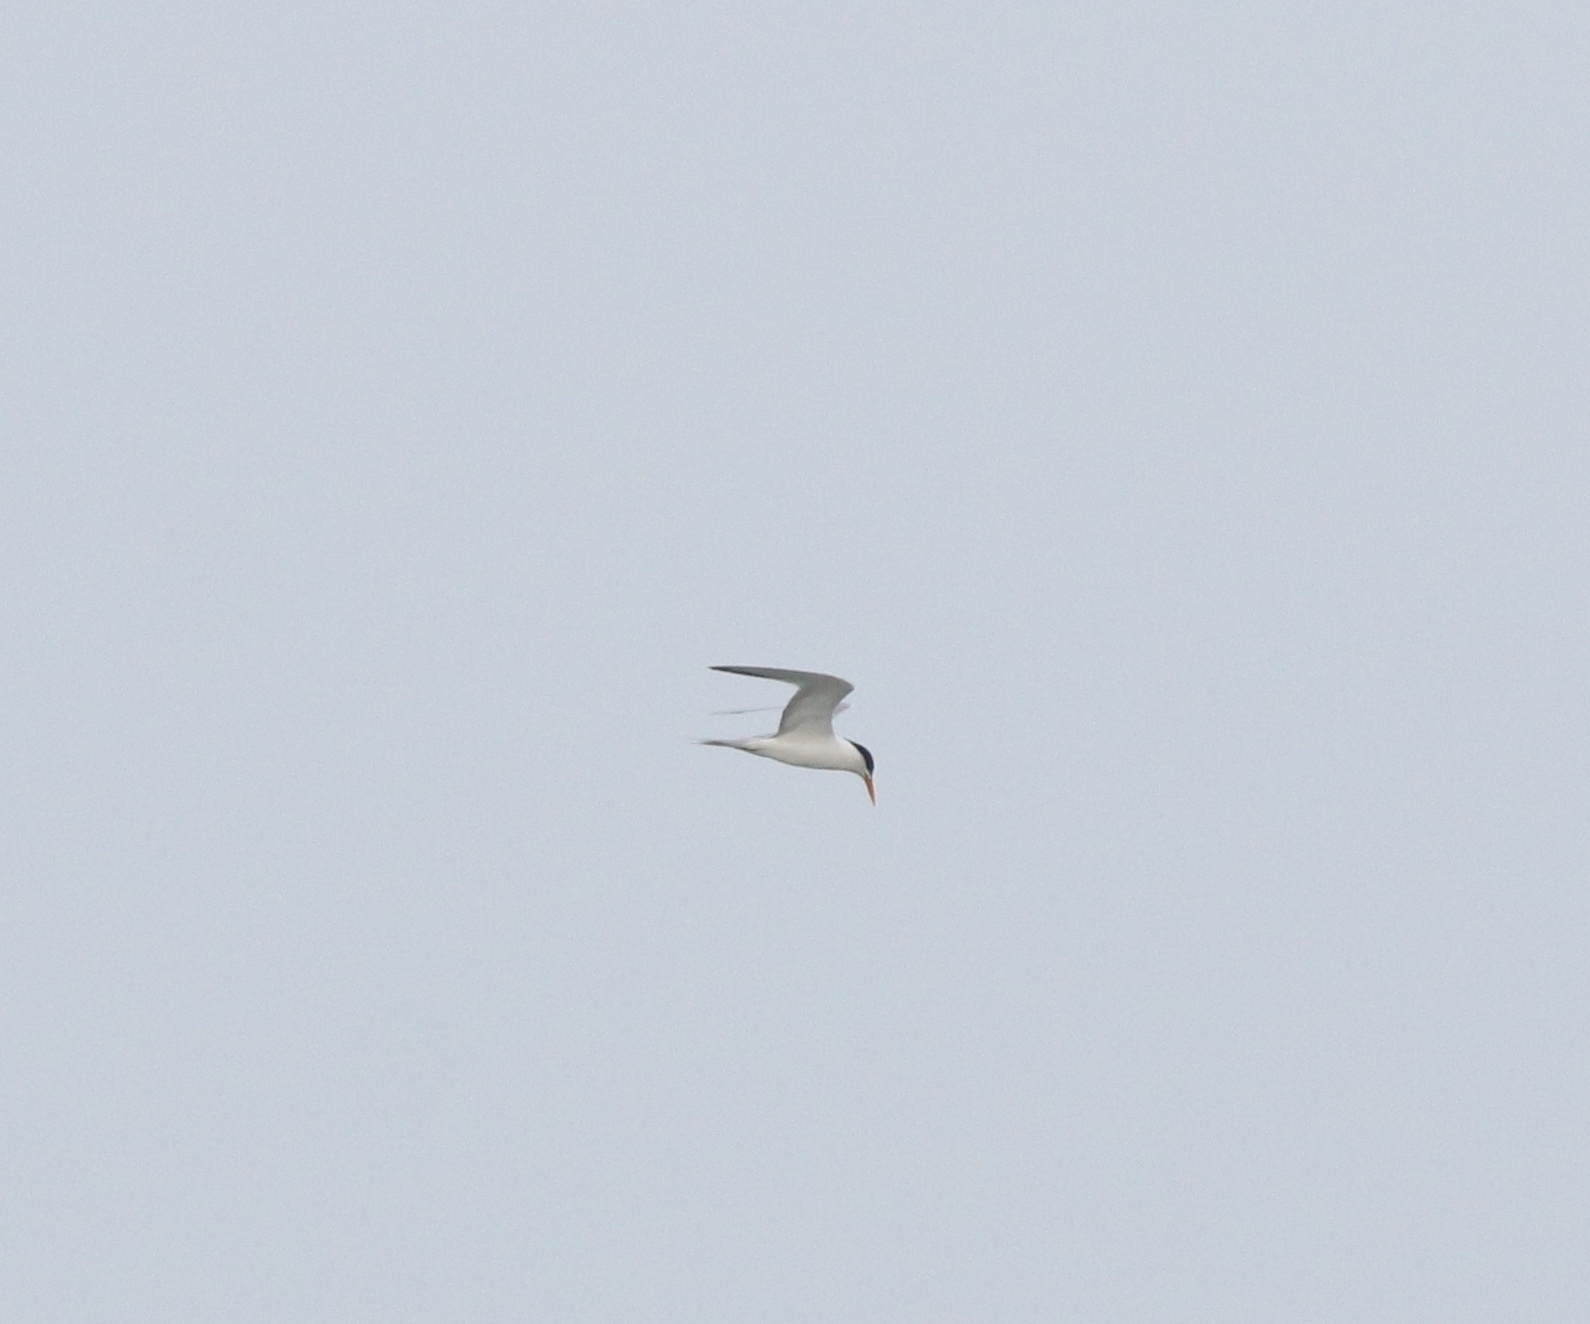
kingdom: Animalia
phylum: Chordata
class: Aves
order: Charadriiformes
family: Laridae
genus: Thalasseus
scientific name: Thalasseus bengalensis
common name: Lesser crested tern
